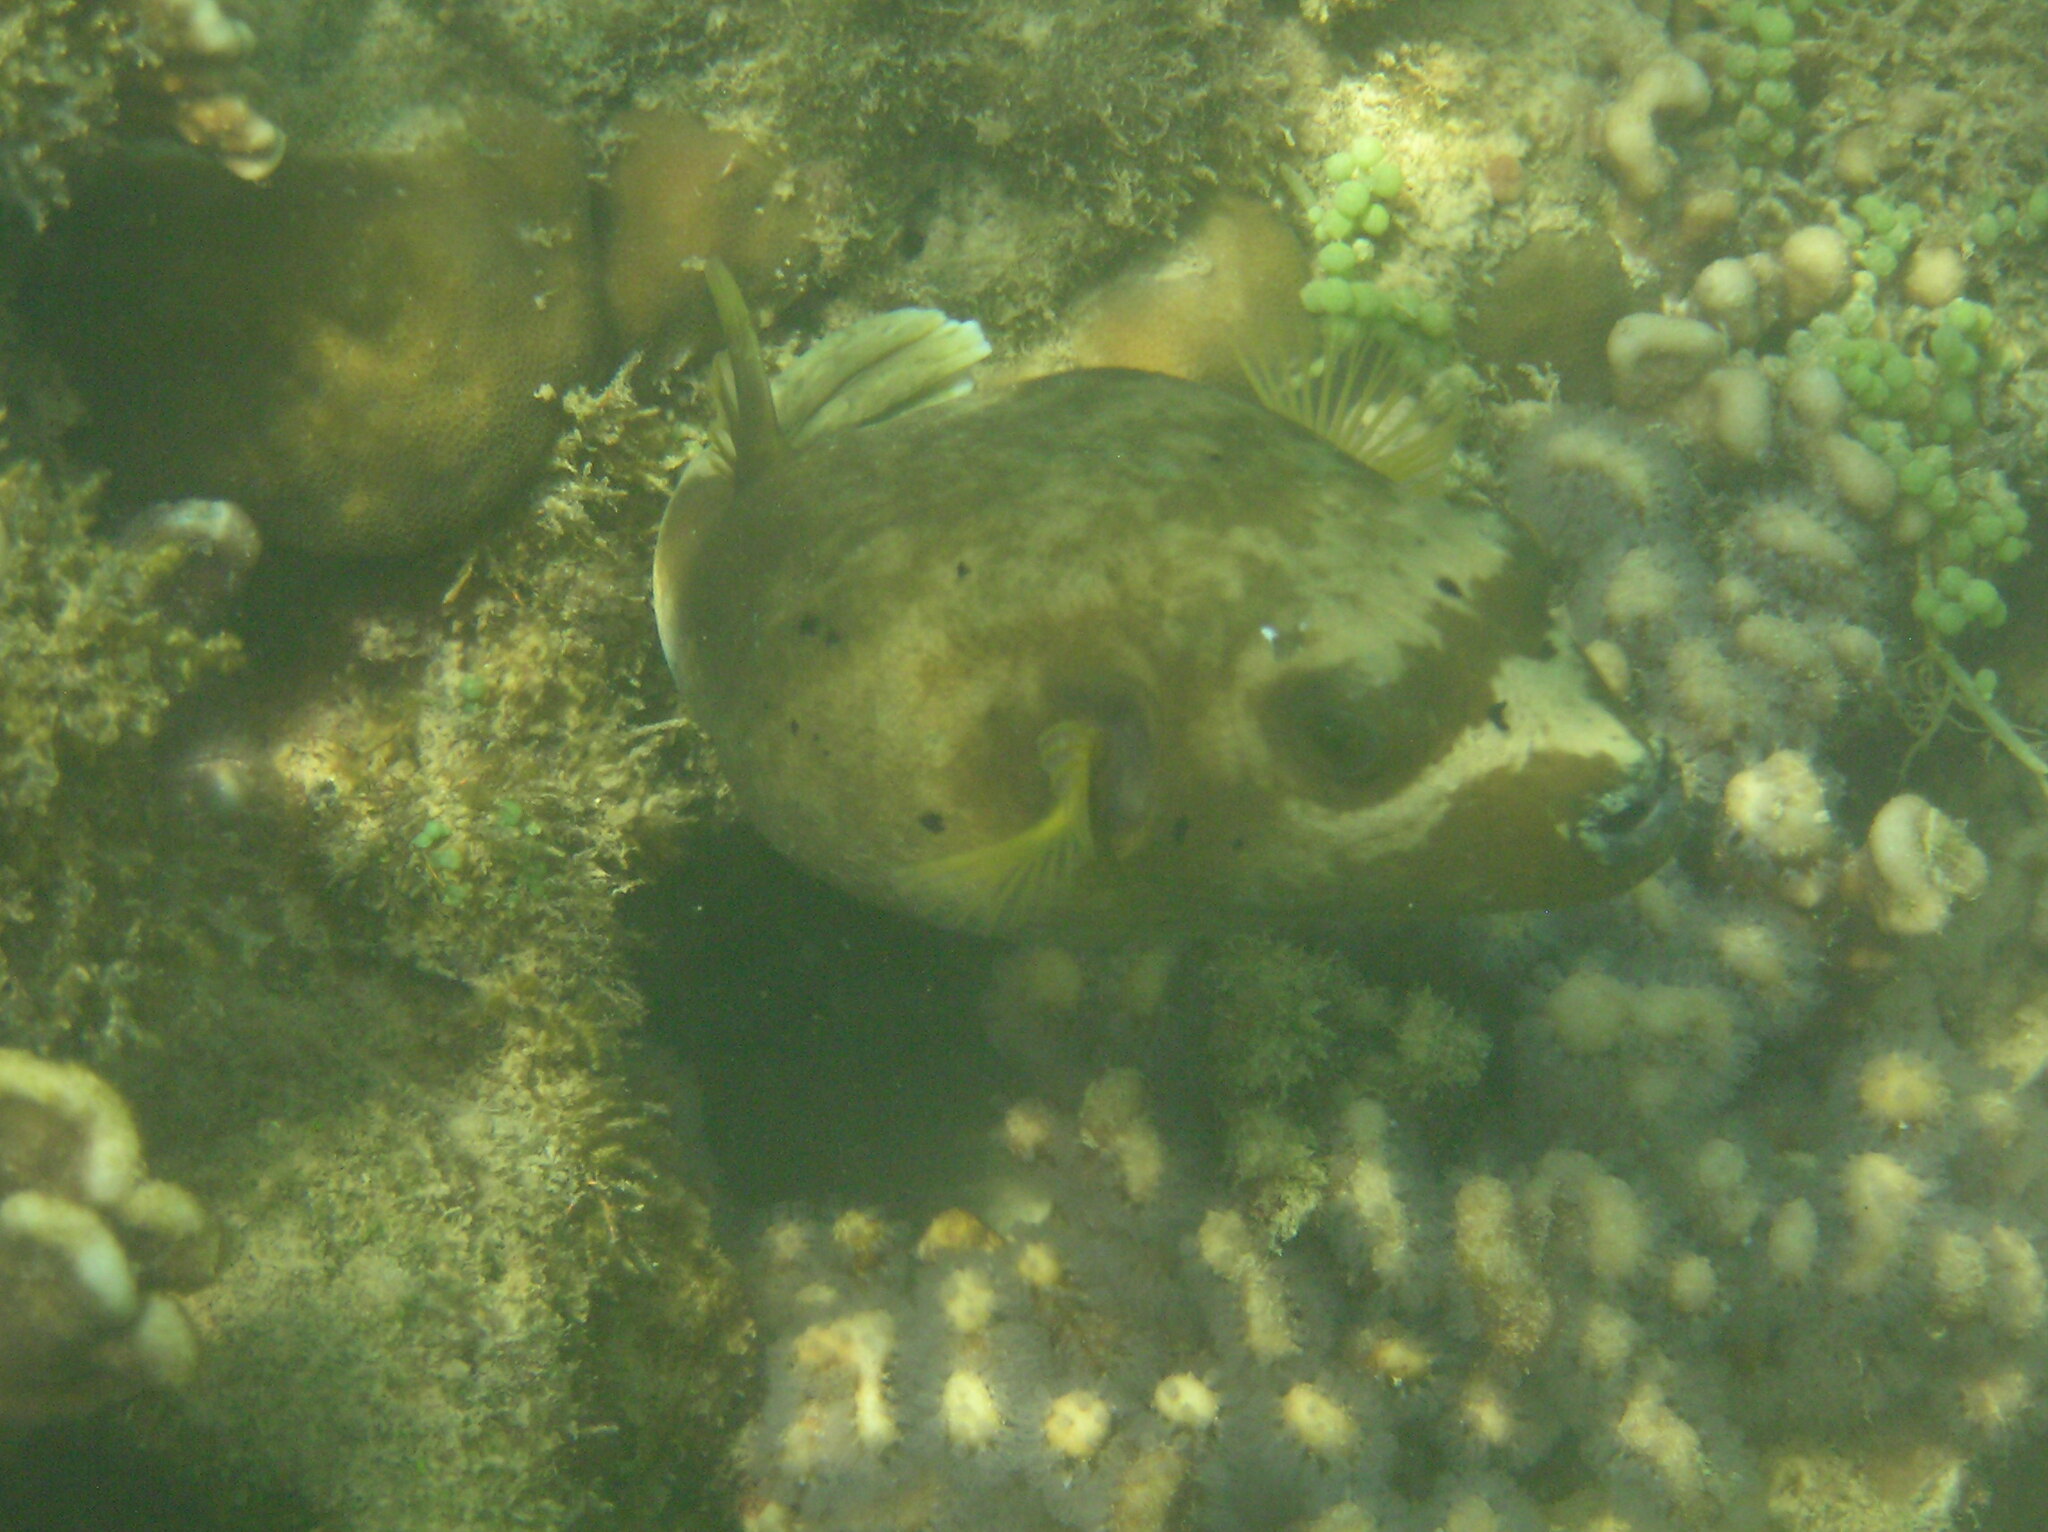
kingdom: Animalia
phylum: Chordata
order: Tetraodontiformes
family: Tetraodontidae
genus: Arothron
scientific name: Arothron nigropunctatus
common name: Black spotted blow fish
